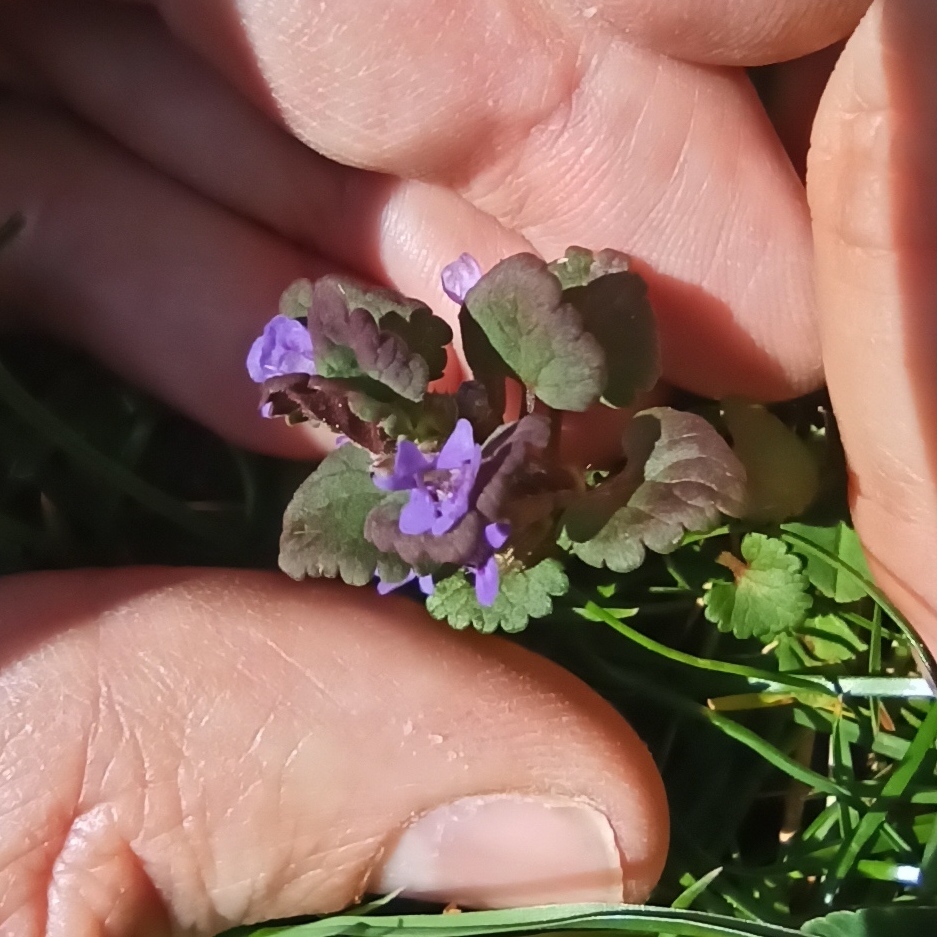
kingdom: Plantae
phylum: Tracheophyta
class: Magnoliopsida
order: Lamiales
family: Lamiaceae
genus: Glechoma
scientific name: Glechoma hederacea
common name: Ground ivy
